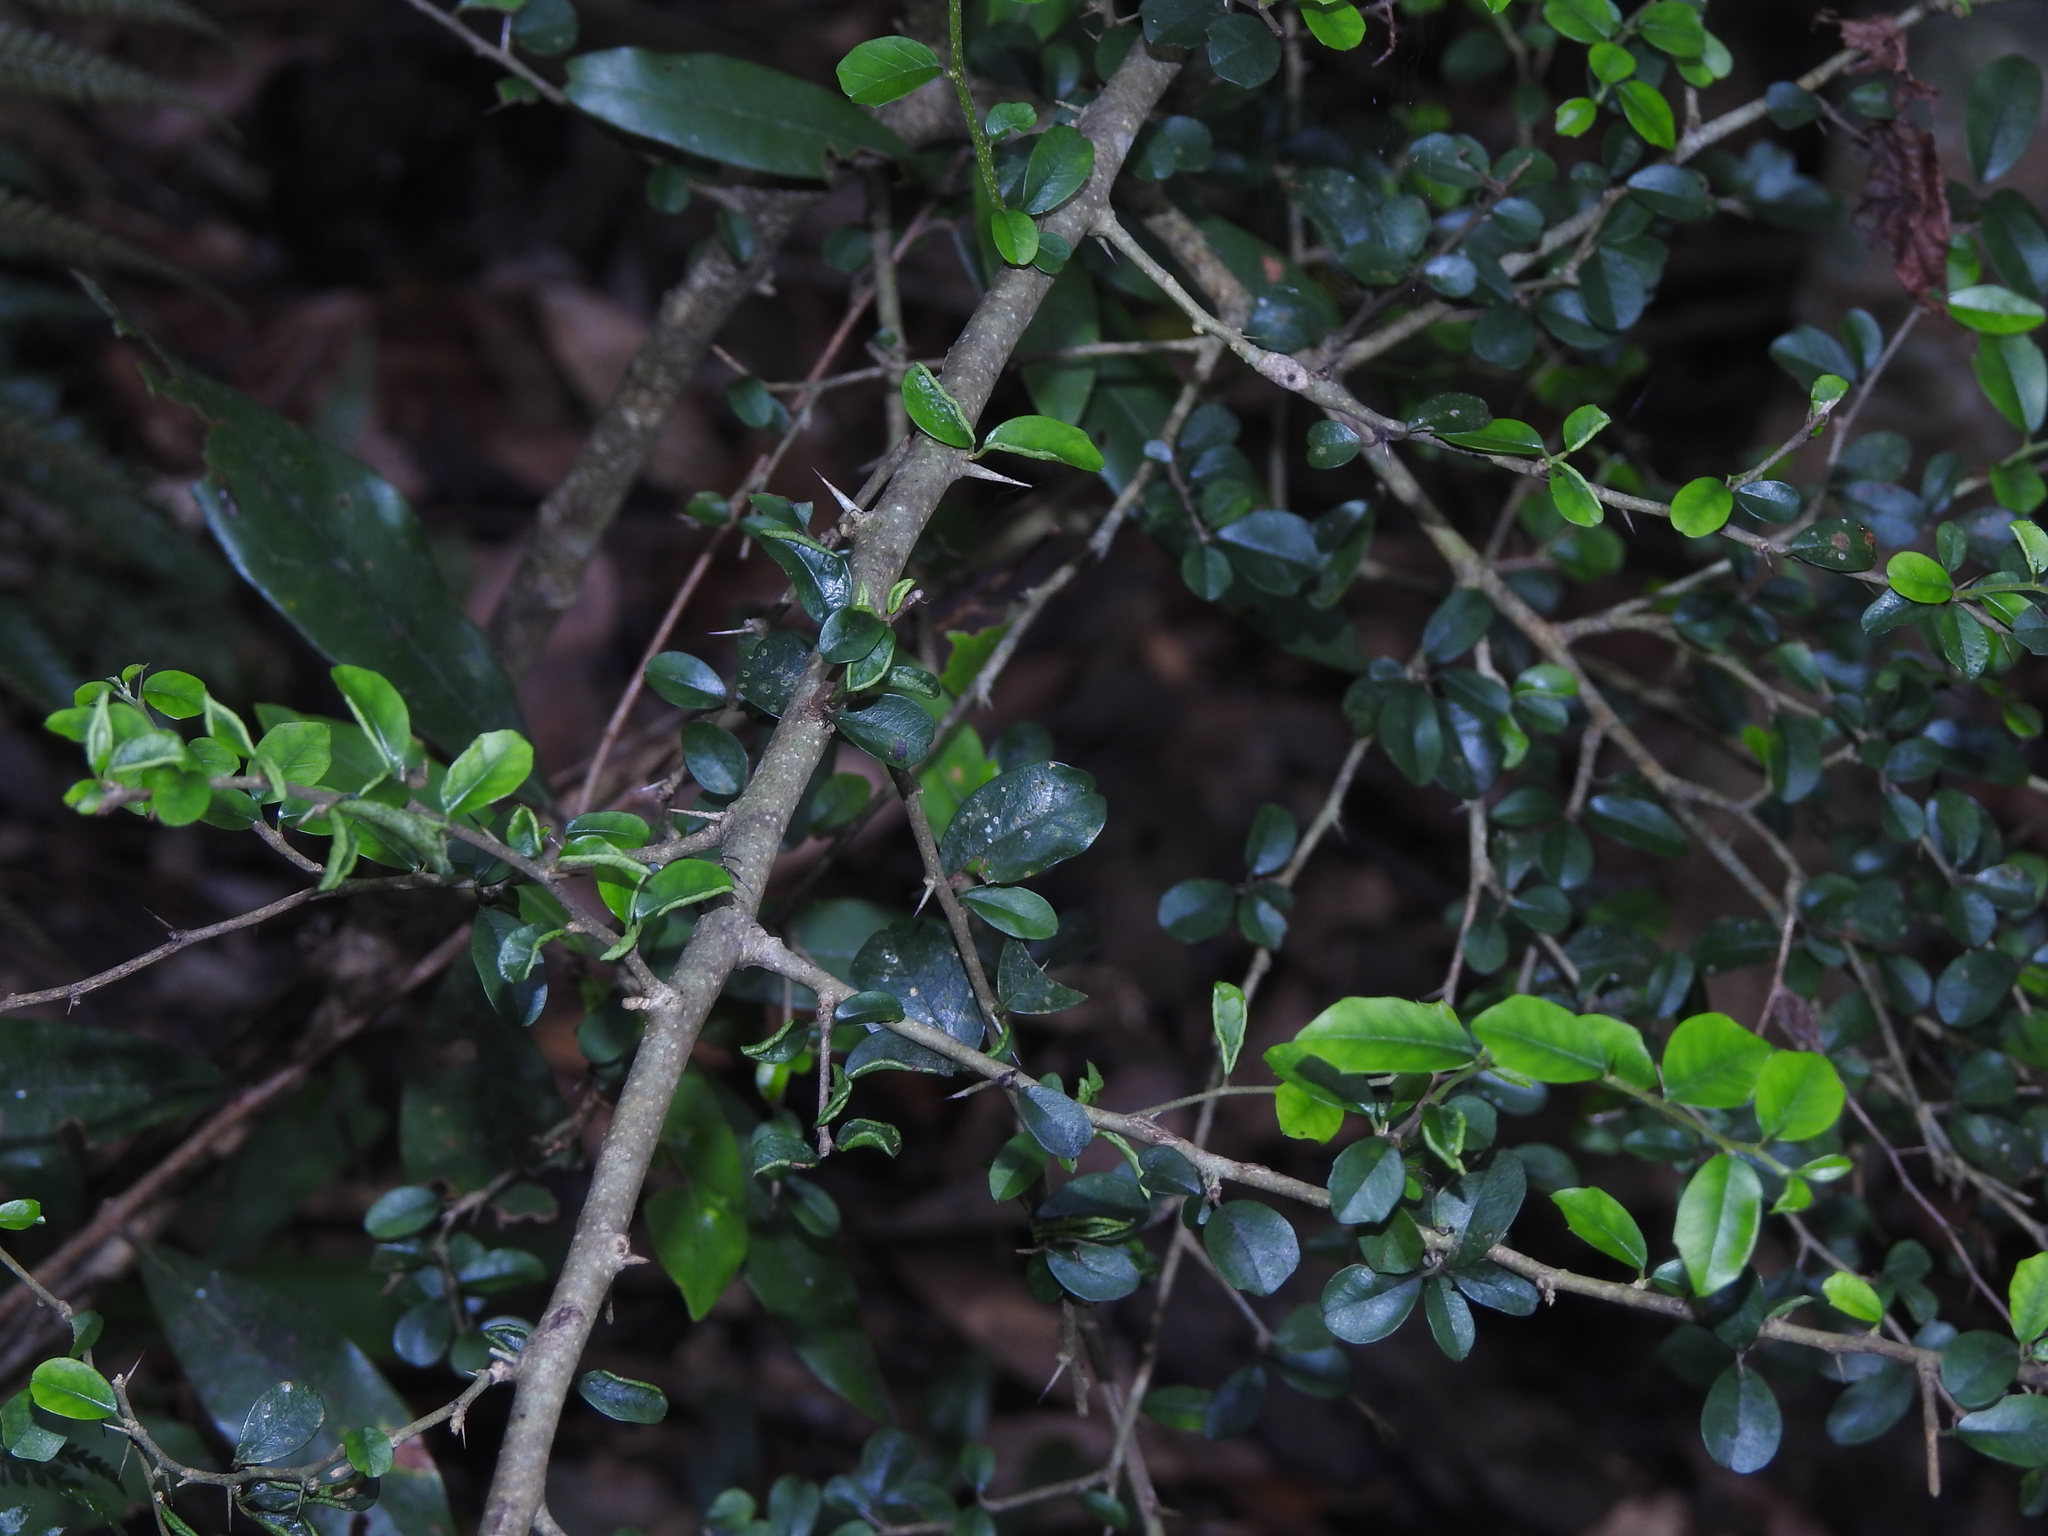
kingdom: Plantae
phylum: Tracheophyta
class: Magnoliopsida
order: Rosales
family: Moraceae
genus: Maclura
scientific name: Maclura cochinchinensis
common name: Cockspurthorn
